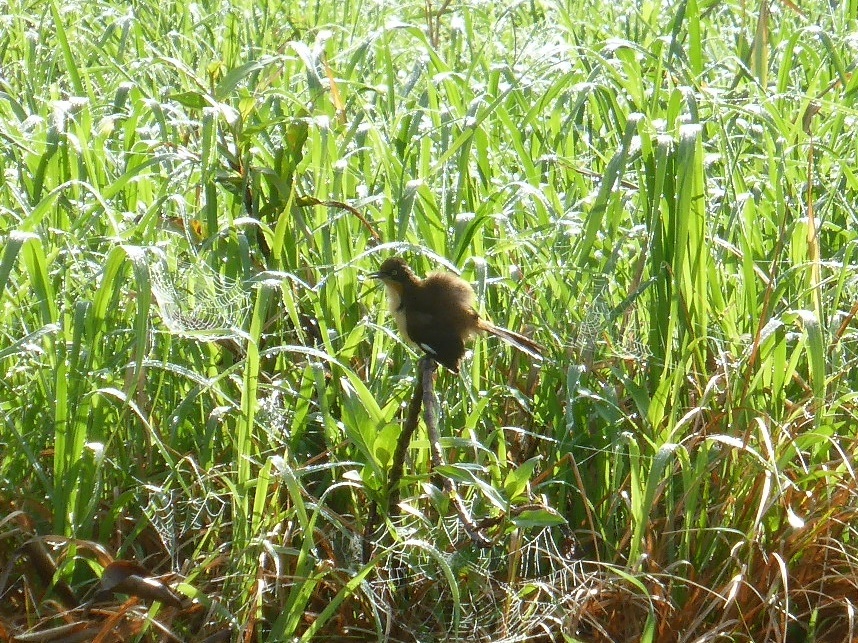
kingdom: Animalia
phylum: Chordata
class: Aves
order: Passeriformes
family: Donacobiidae
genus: Donacobius
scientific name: Donacobius atricapilla
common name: Black-capped donacobius
